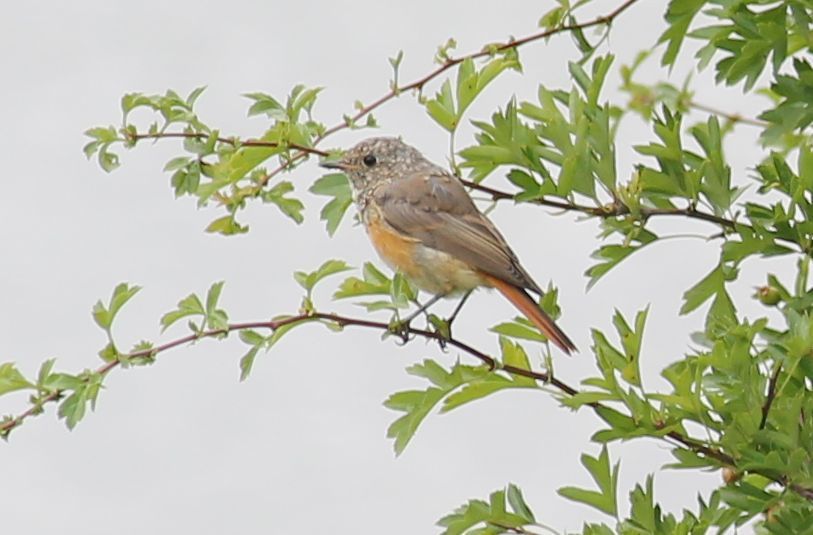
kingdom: Animalia
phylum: Chordata
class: Aves
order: Passeriformes
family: Muscicapidae
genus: Phoenicurus
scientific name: Phoenicurus phoenicurus
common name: Common redstart
